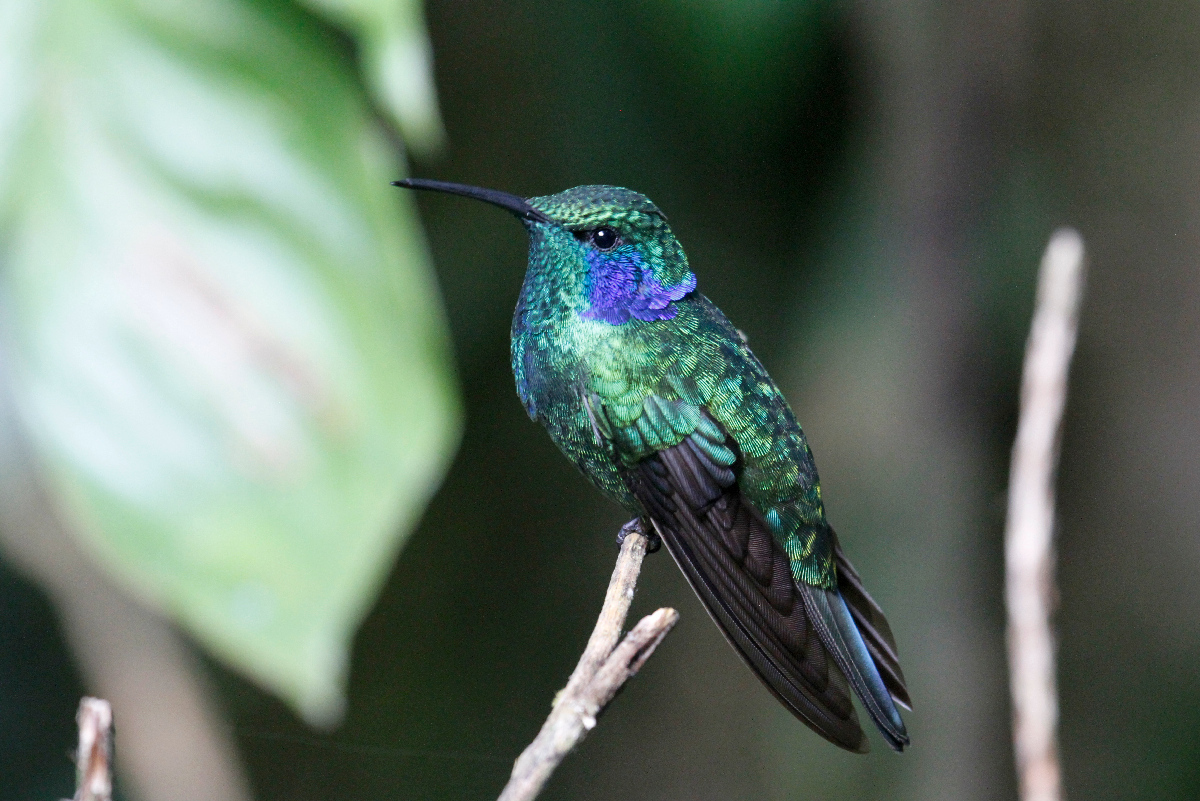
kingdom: Animalia
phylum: Chordata
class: Aves
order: Apodiformes
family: Trochilidae
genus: Colibri
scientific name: Colibri cyanotus
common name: Lesser violetear
